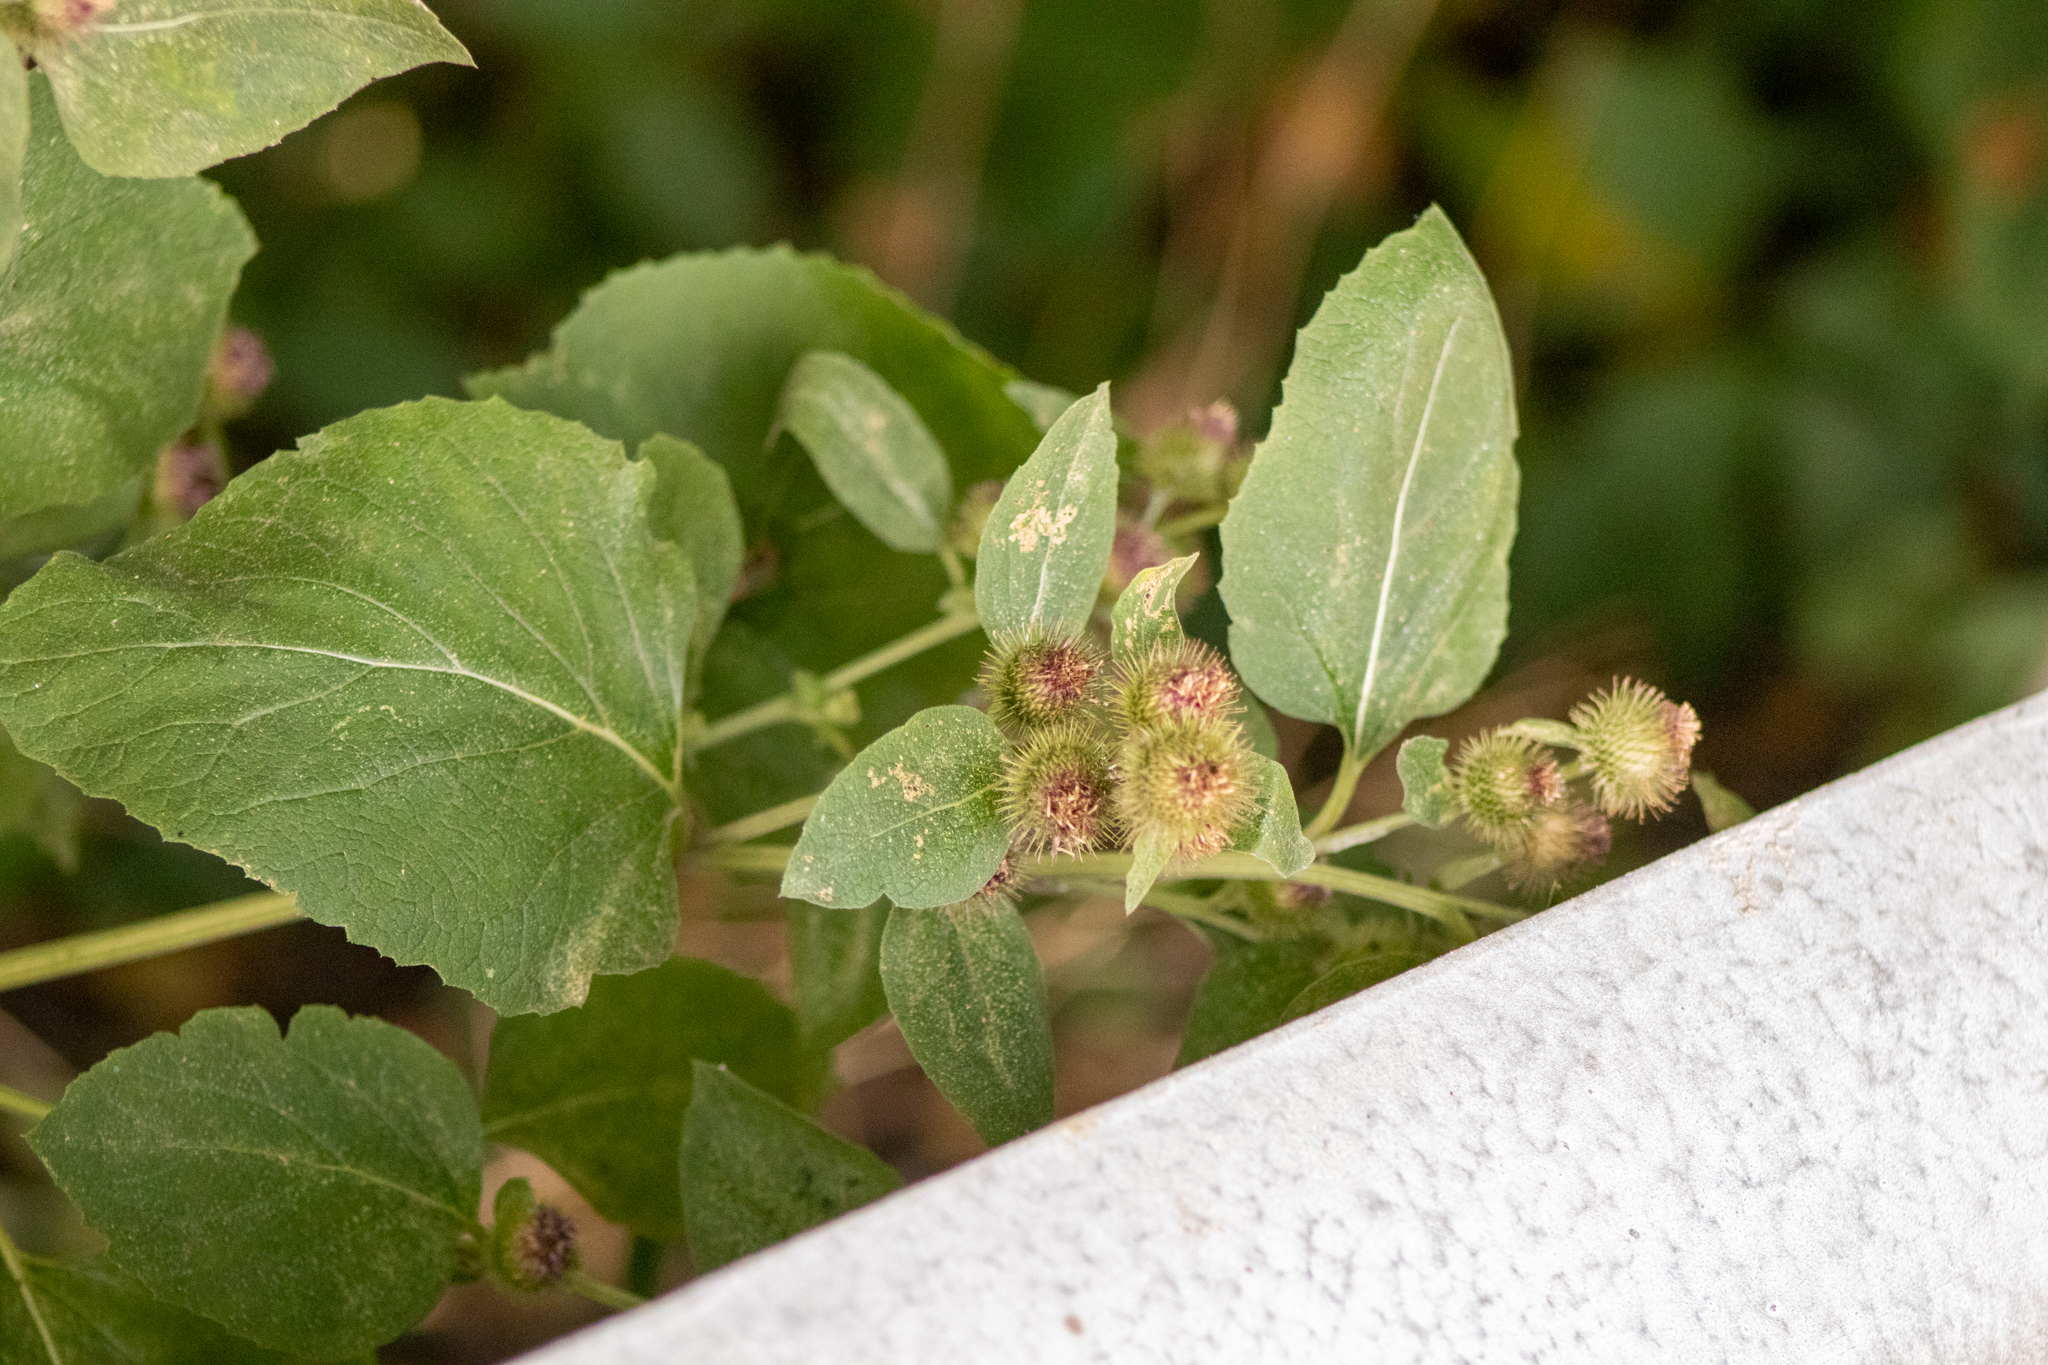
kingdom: Plantae
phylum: Tracheophyta
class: Magnoliopsida
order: Asterales
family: Asteraceae
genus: Arctium
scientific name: Arctium minus
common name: Lesser burdock
